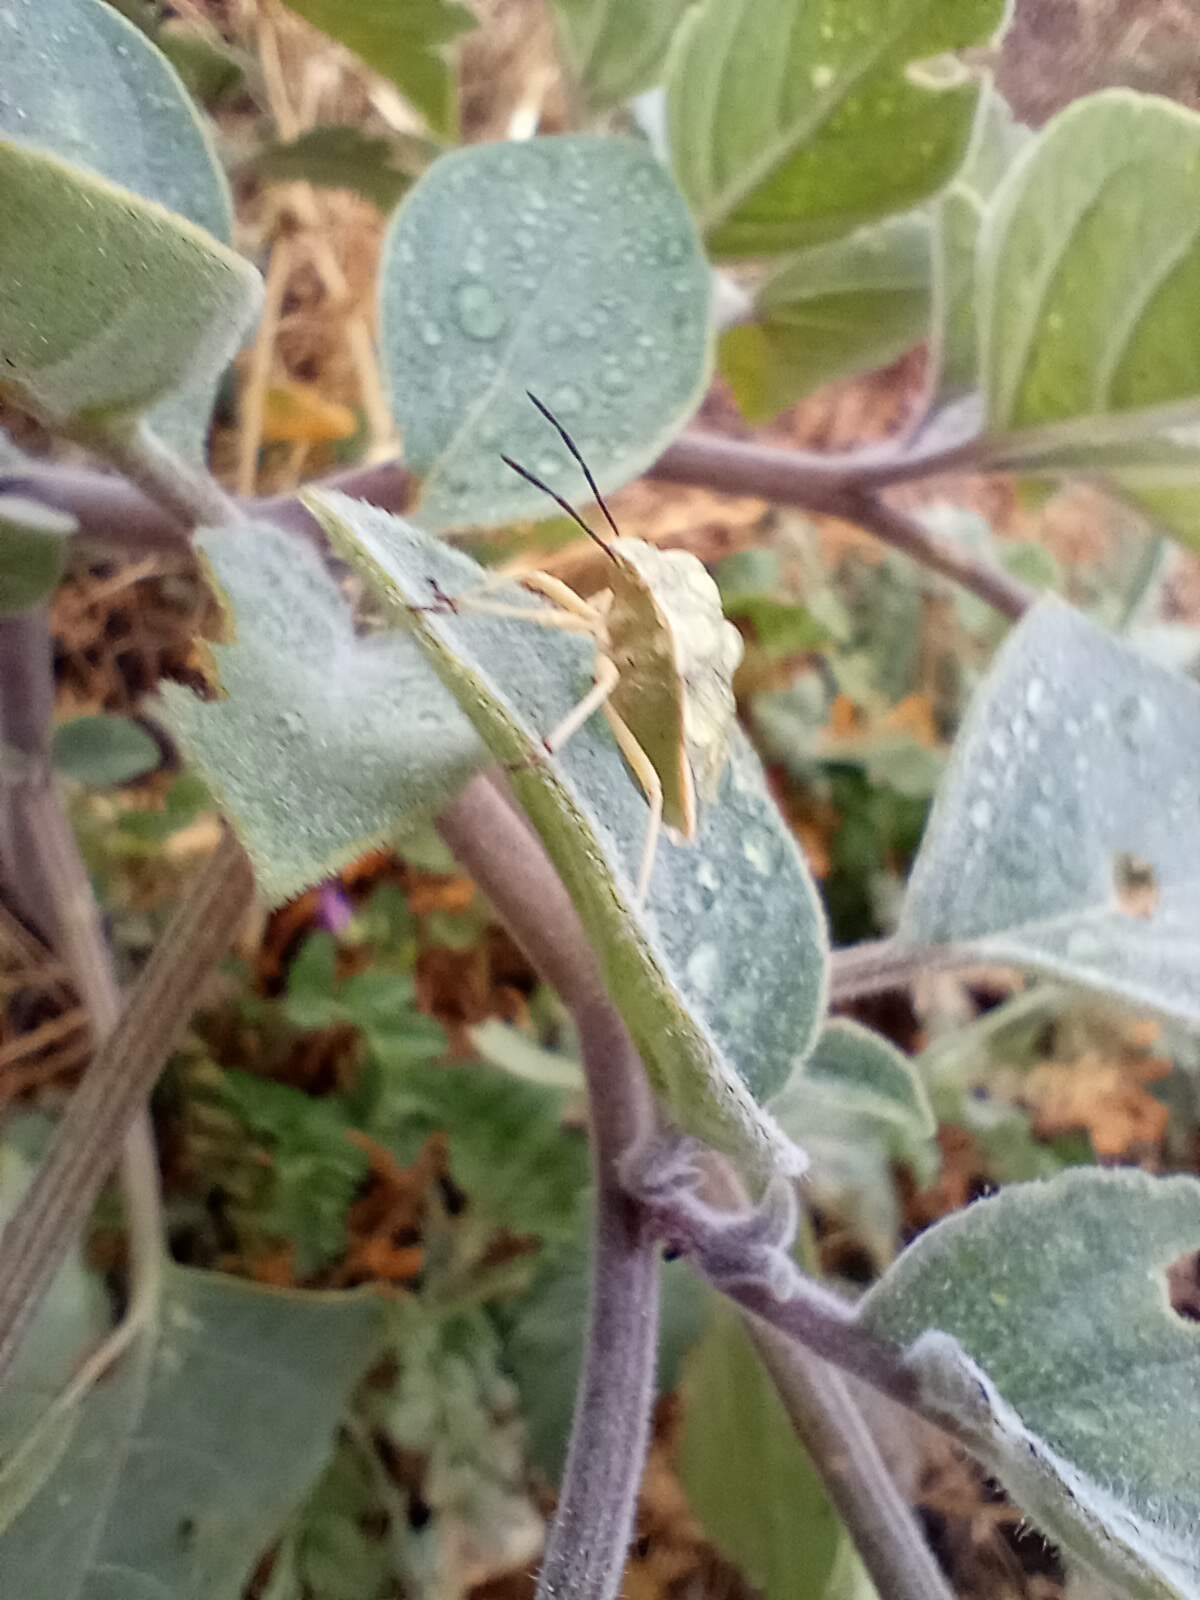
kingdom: Plantae
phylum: Tracheophyta
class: Magnoliopsida
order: Solanales
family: Solanaceae
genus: Datura
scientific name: Datura wrightii
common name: Sacred thorn-apple
